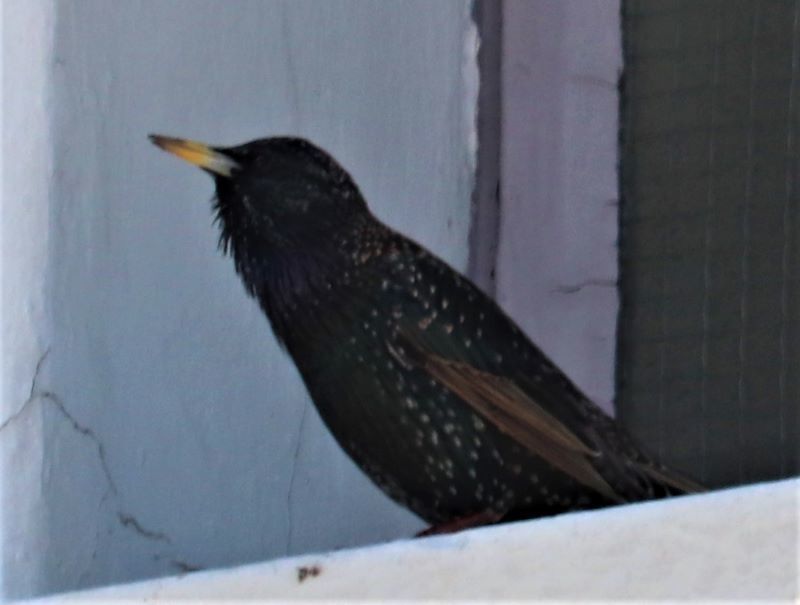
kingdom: Animalia
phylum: Chordata
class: Aves
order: Passeriformes
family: Sturnidae
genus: Sturnus
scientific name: Sturnus vulgaris
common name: Common starling
